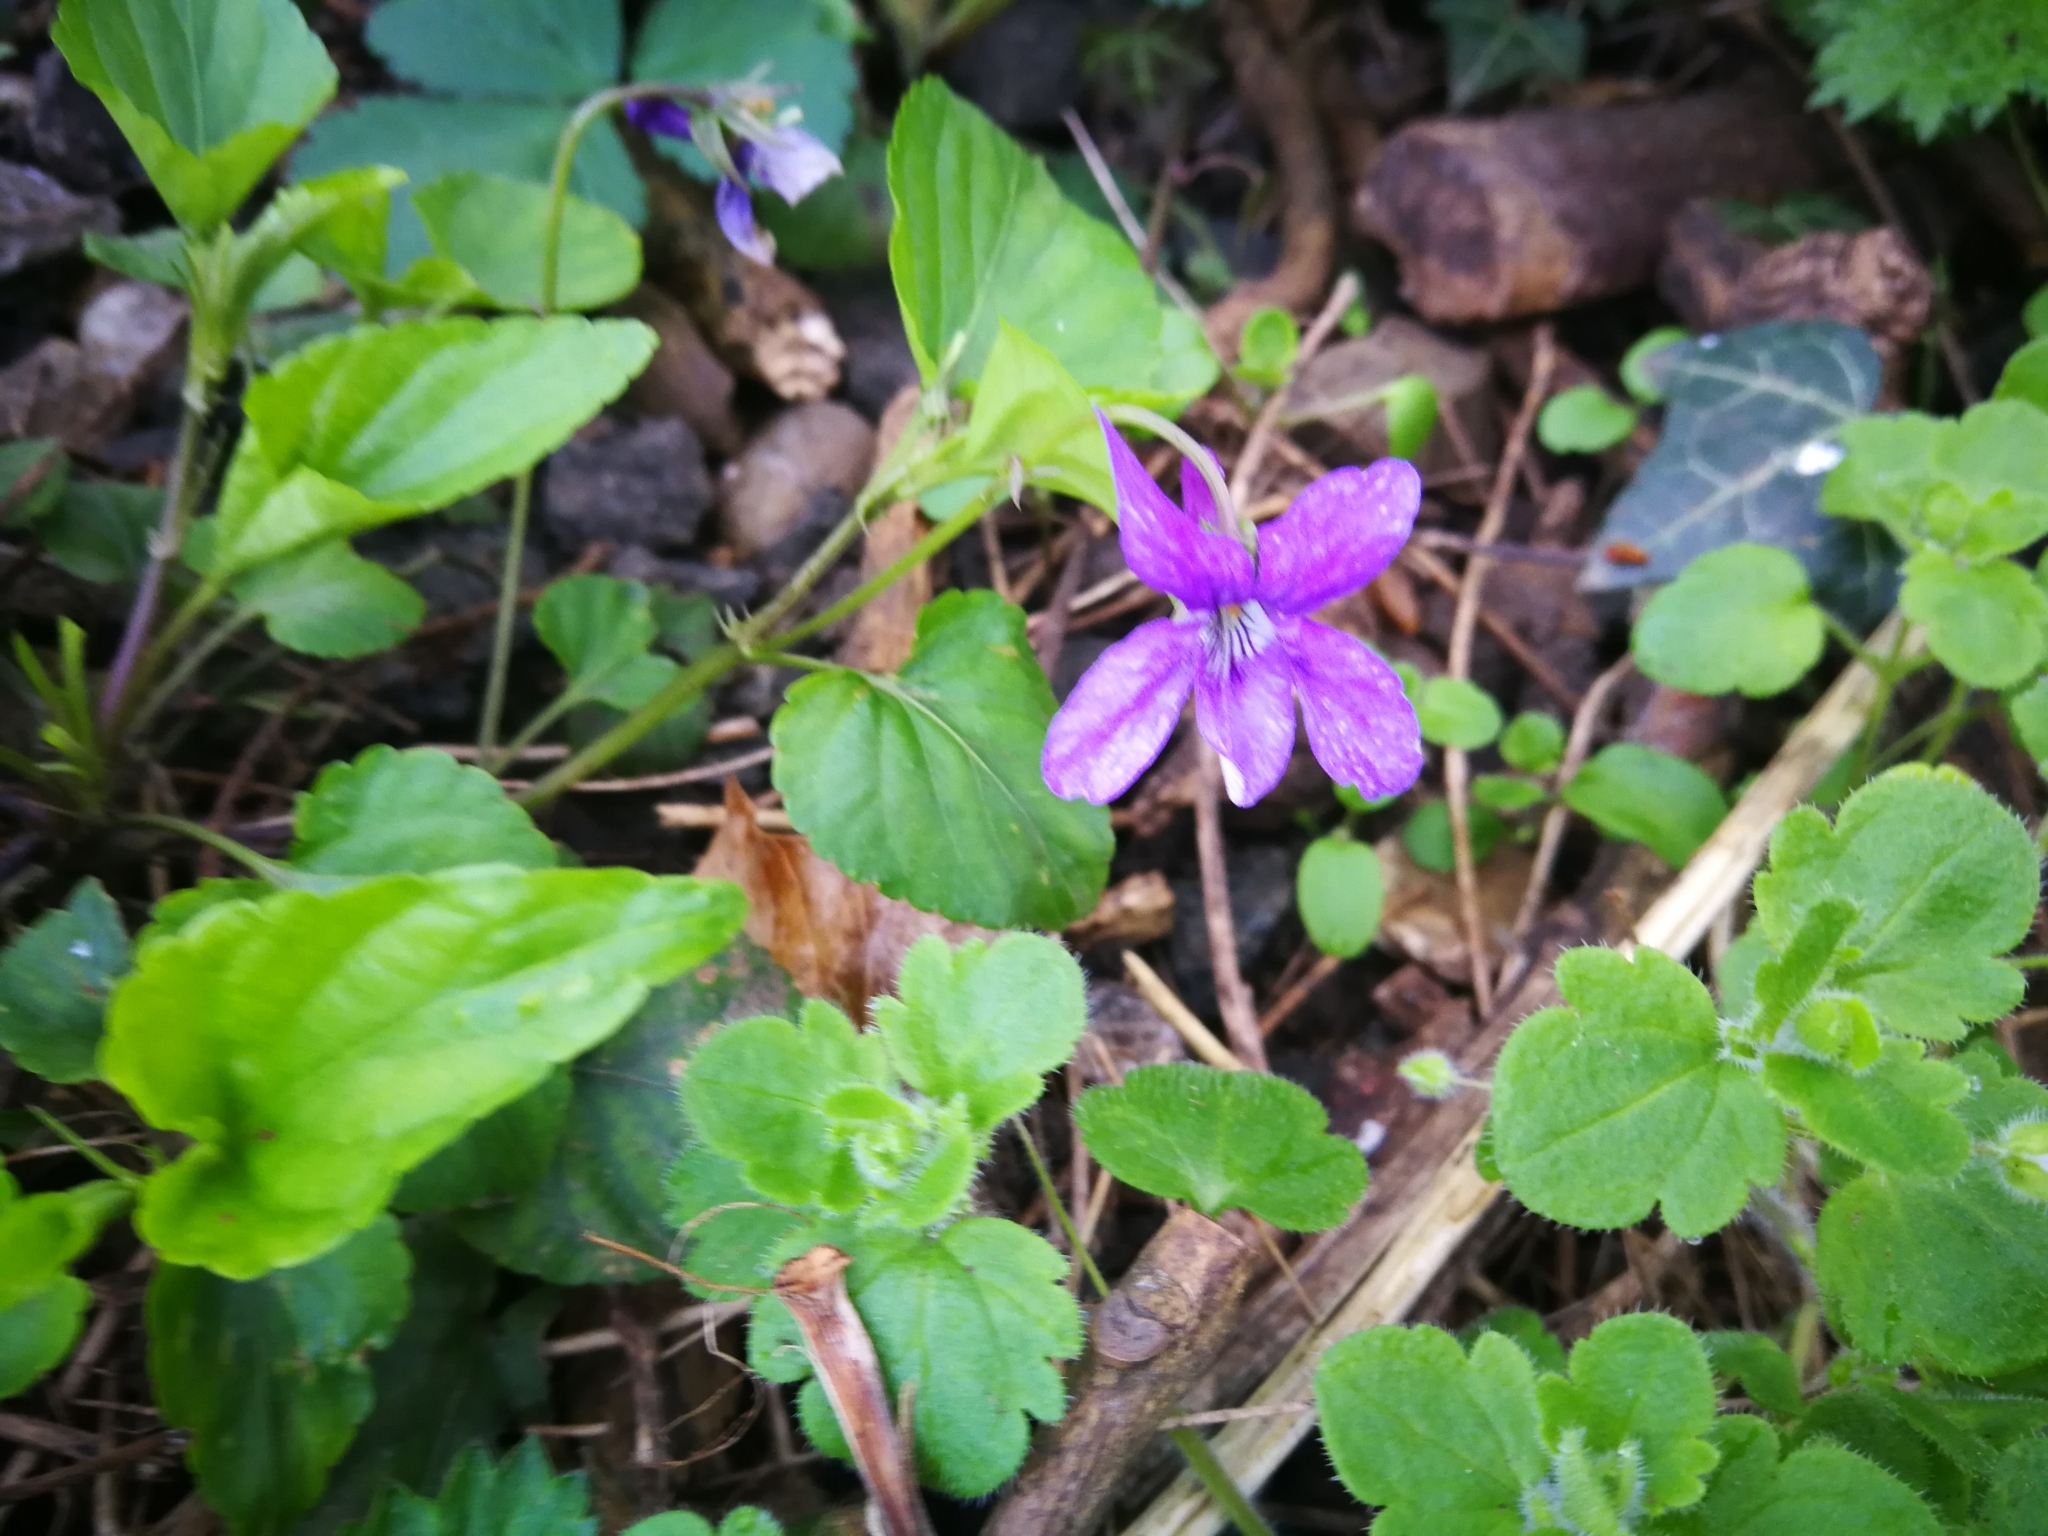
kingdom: Plantae
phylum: Tracheophyta
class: Magnoliopsida
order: Malpighiales
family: Violaceae
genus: Viola
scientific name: Viola reichenbachiana
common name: Early dog-violet
